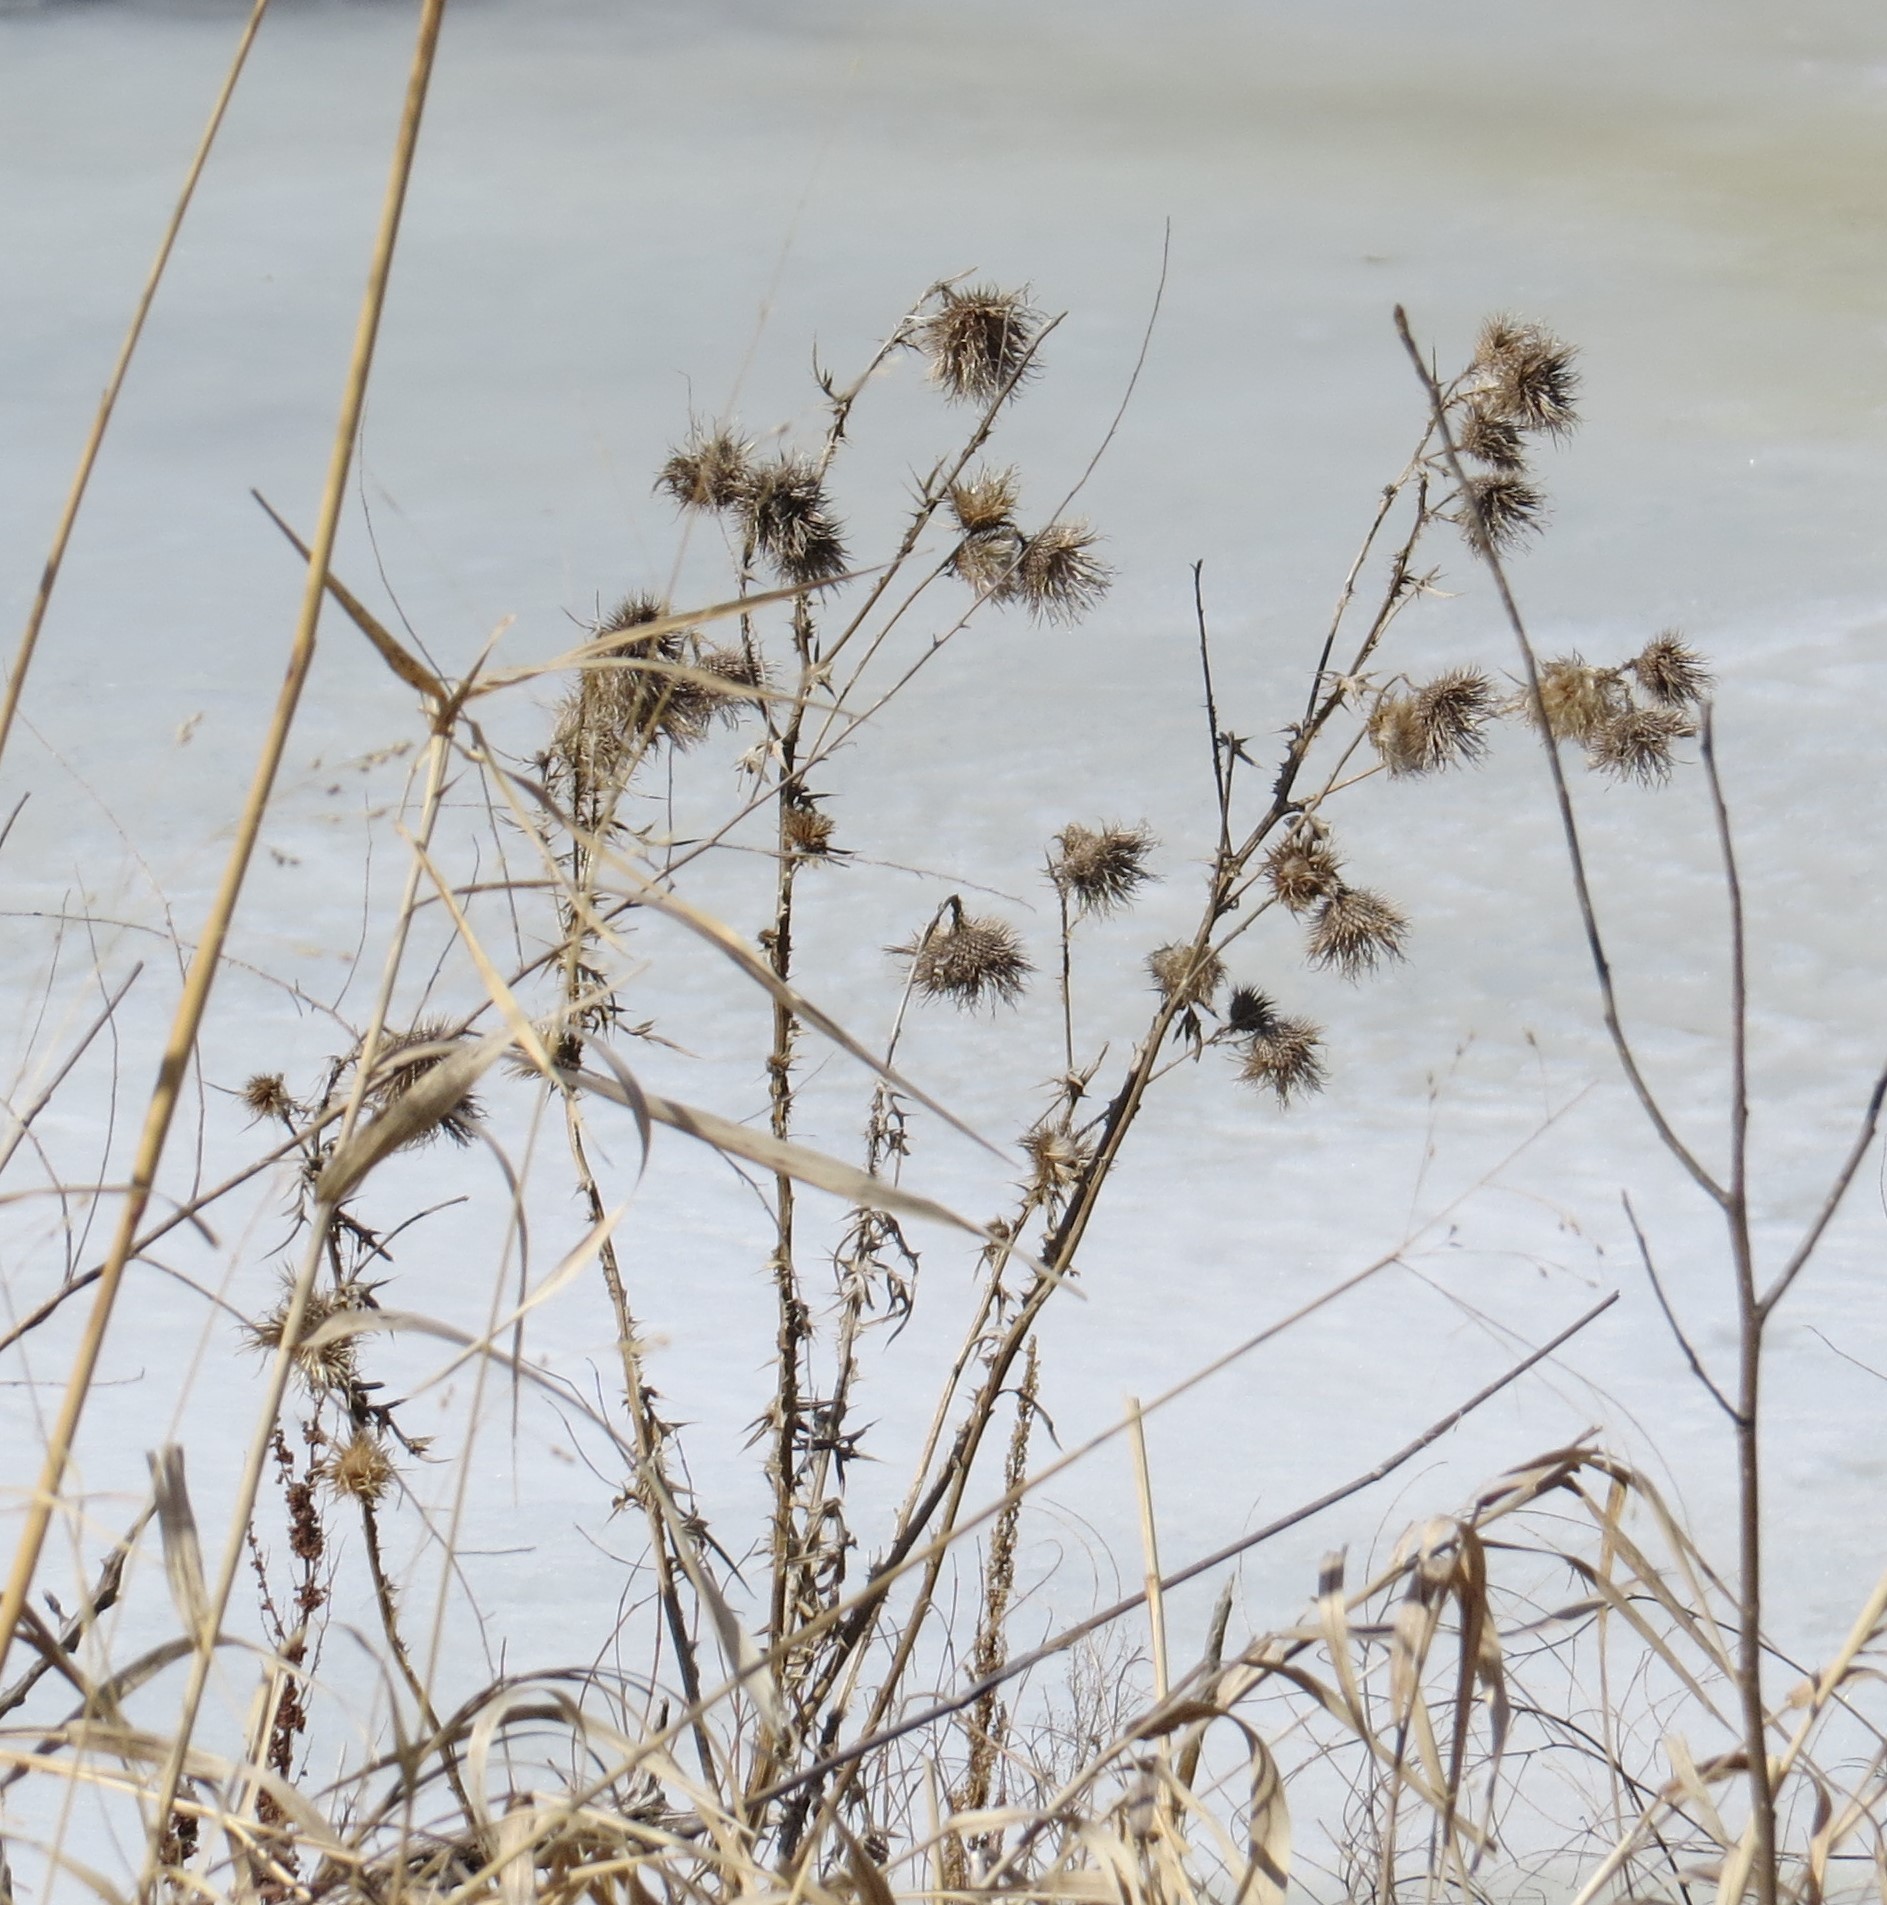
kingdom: Plantae
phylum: Tracheophyta
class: Magnoliopsida
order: Asterales
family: Asteraceae
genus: Cirsium
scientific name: Cirsium vulgare
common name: Bull thistle
